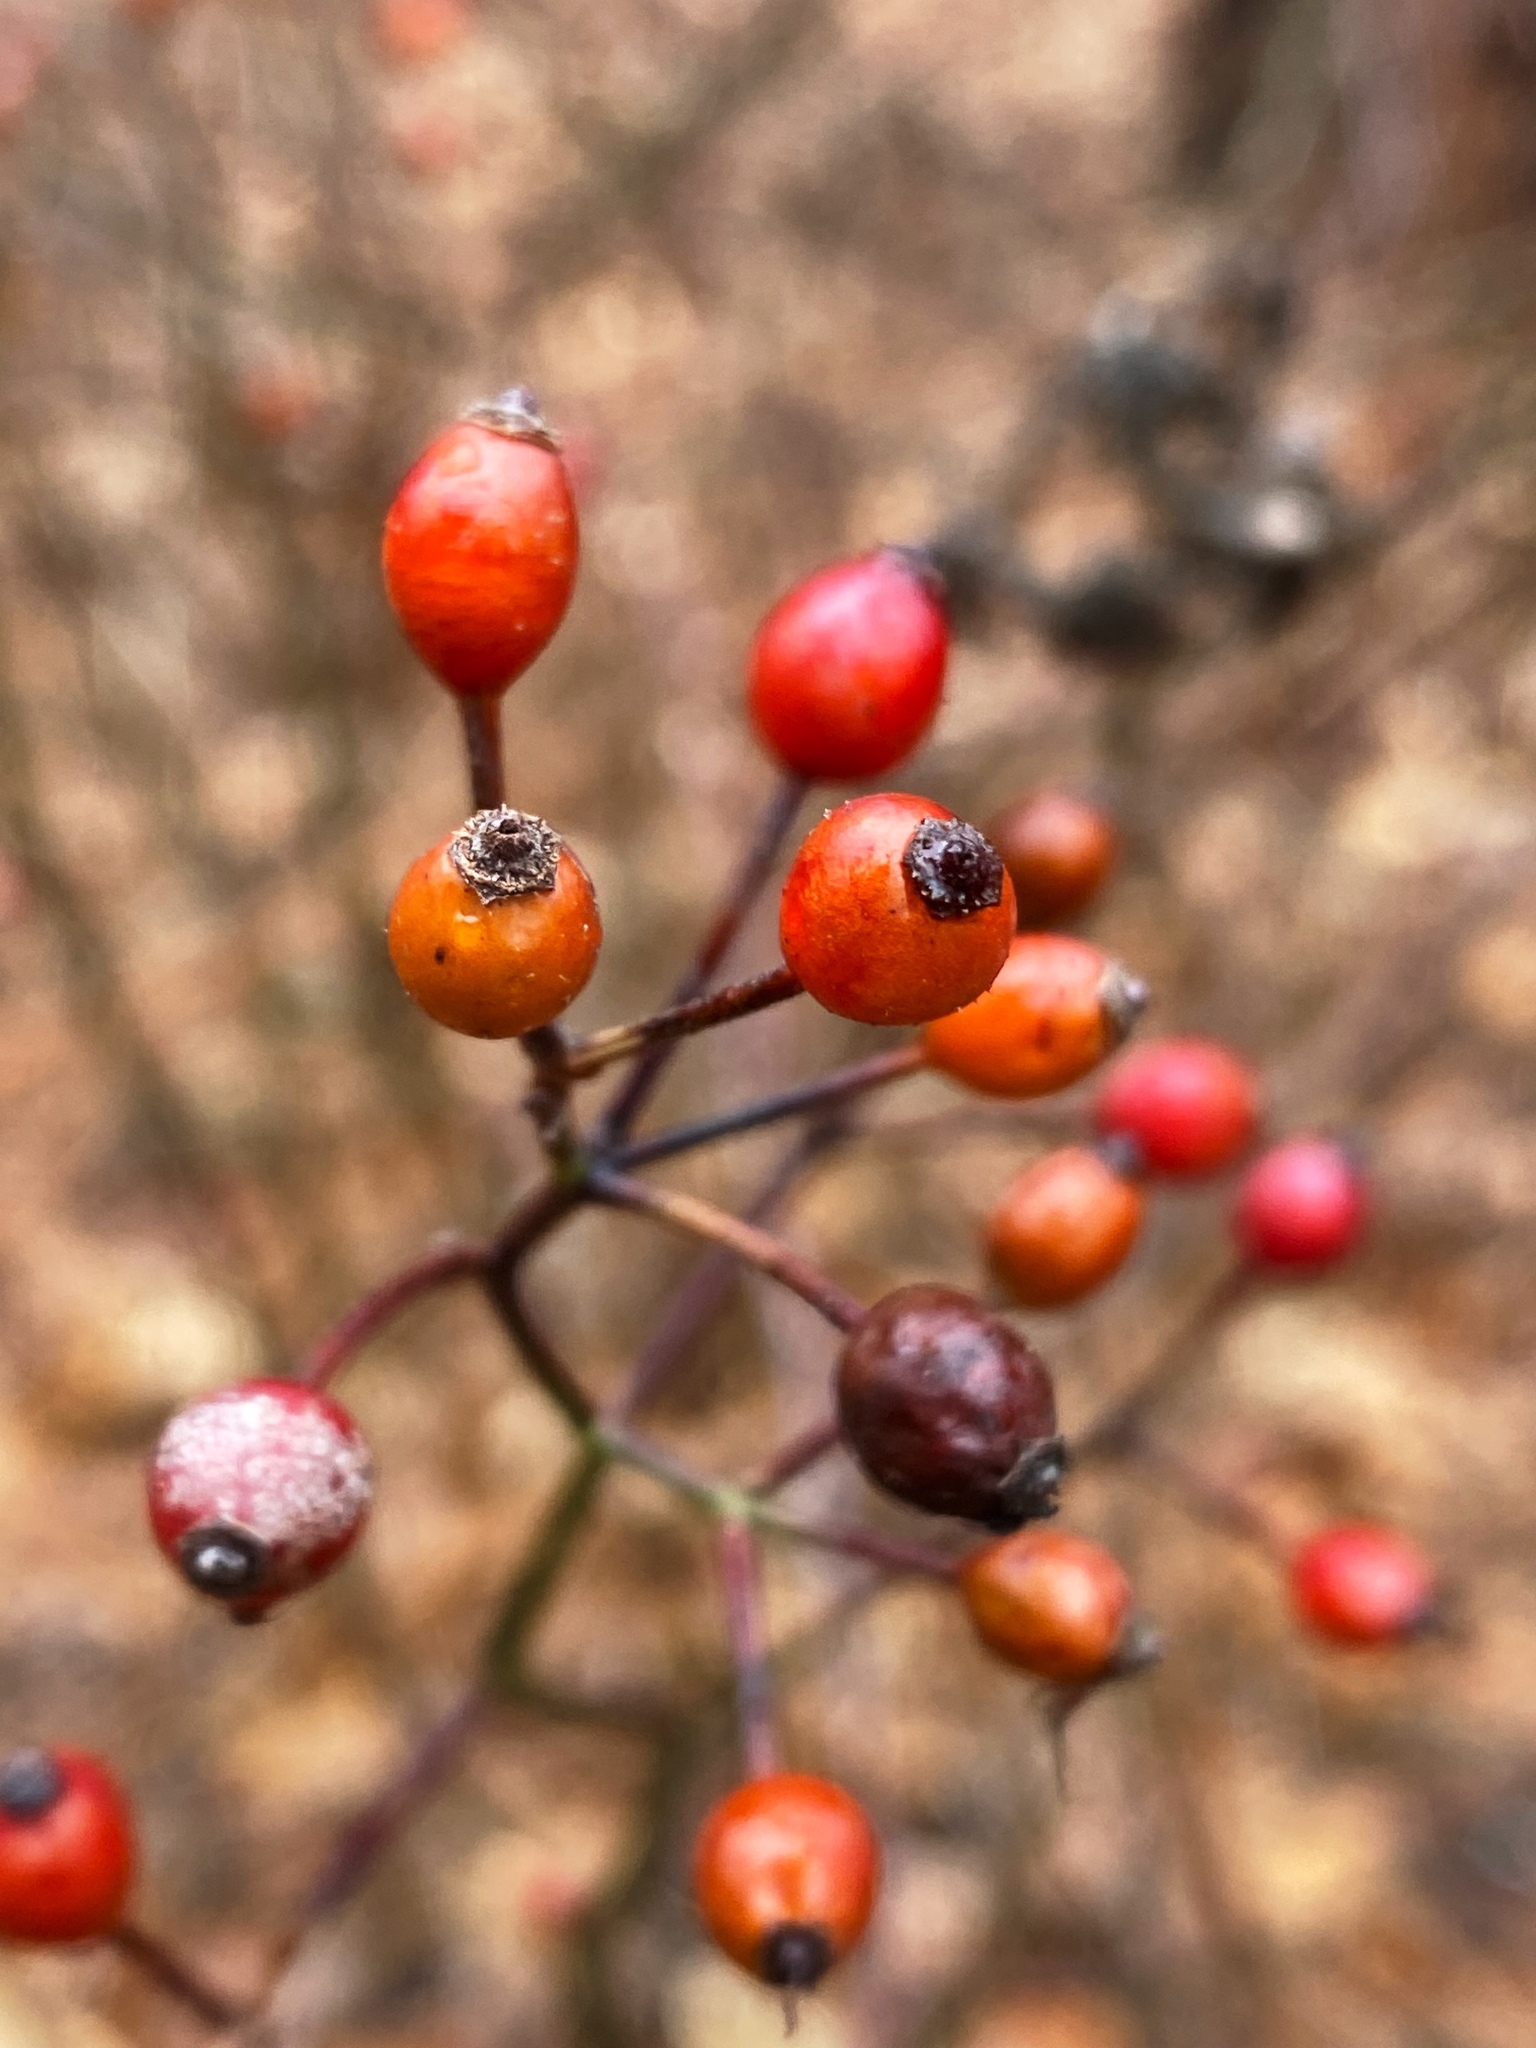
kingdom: Plantae
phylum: Tracheophyta
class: Magnoliopsida
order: Rosales
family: Rosaceae
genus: Rosa
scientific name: Rosa multiflora
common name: Multiflora rose
